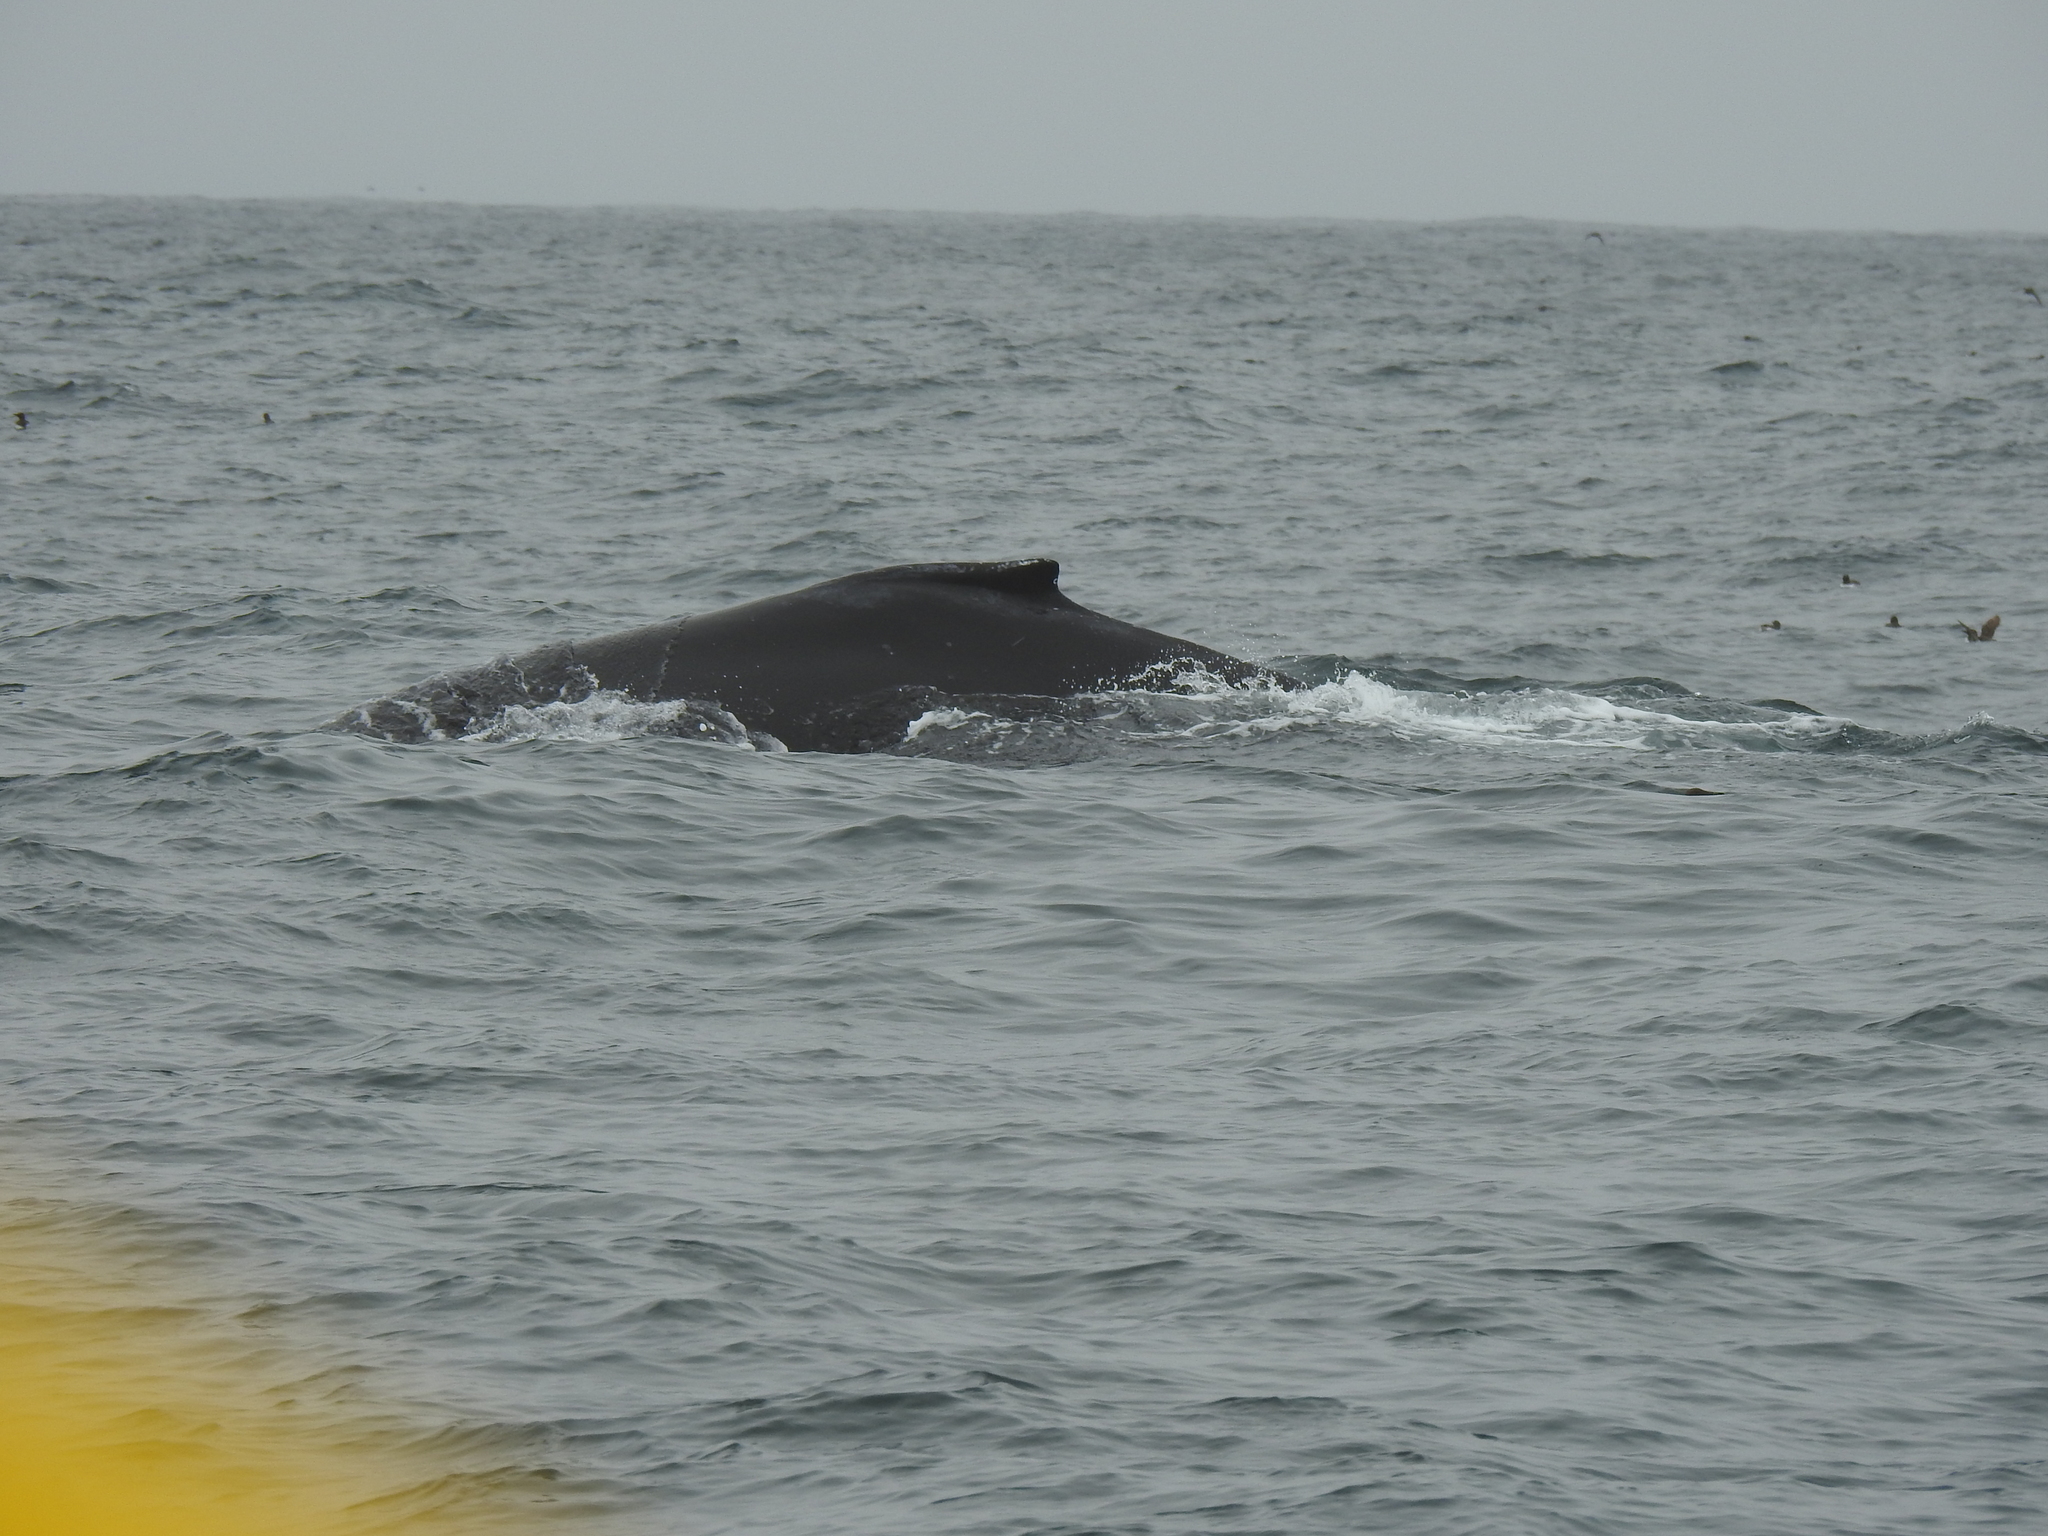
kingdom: Animalia
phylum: Chordata
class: Mammalia
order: Cetacea
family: Balaenopteridae
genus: Megaptera
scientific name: Megaptera novaeangliae
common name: Humpback whale
